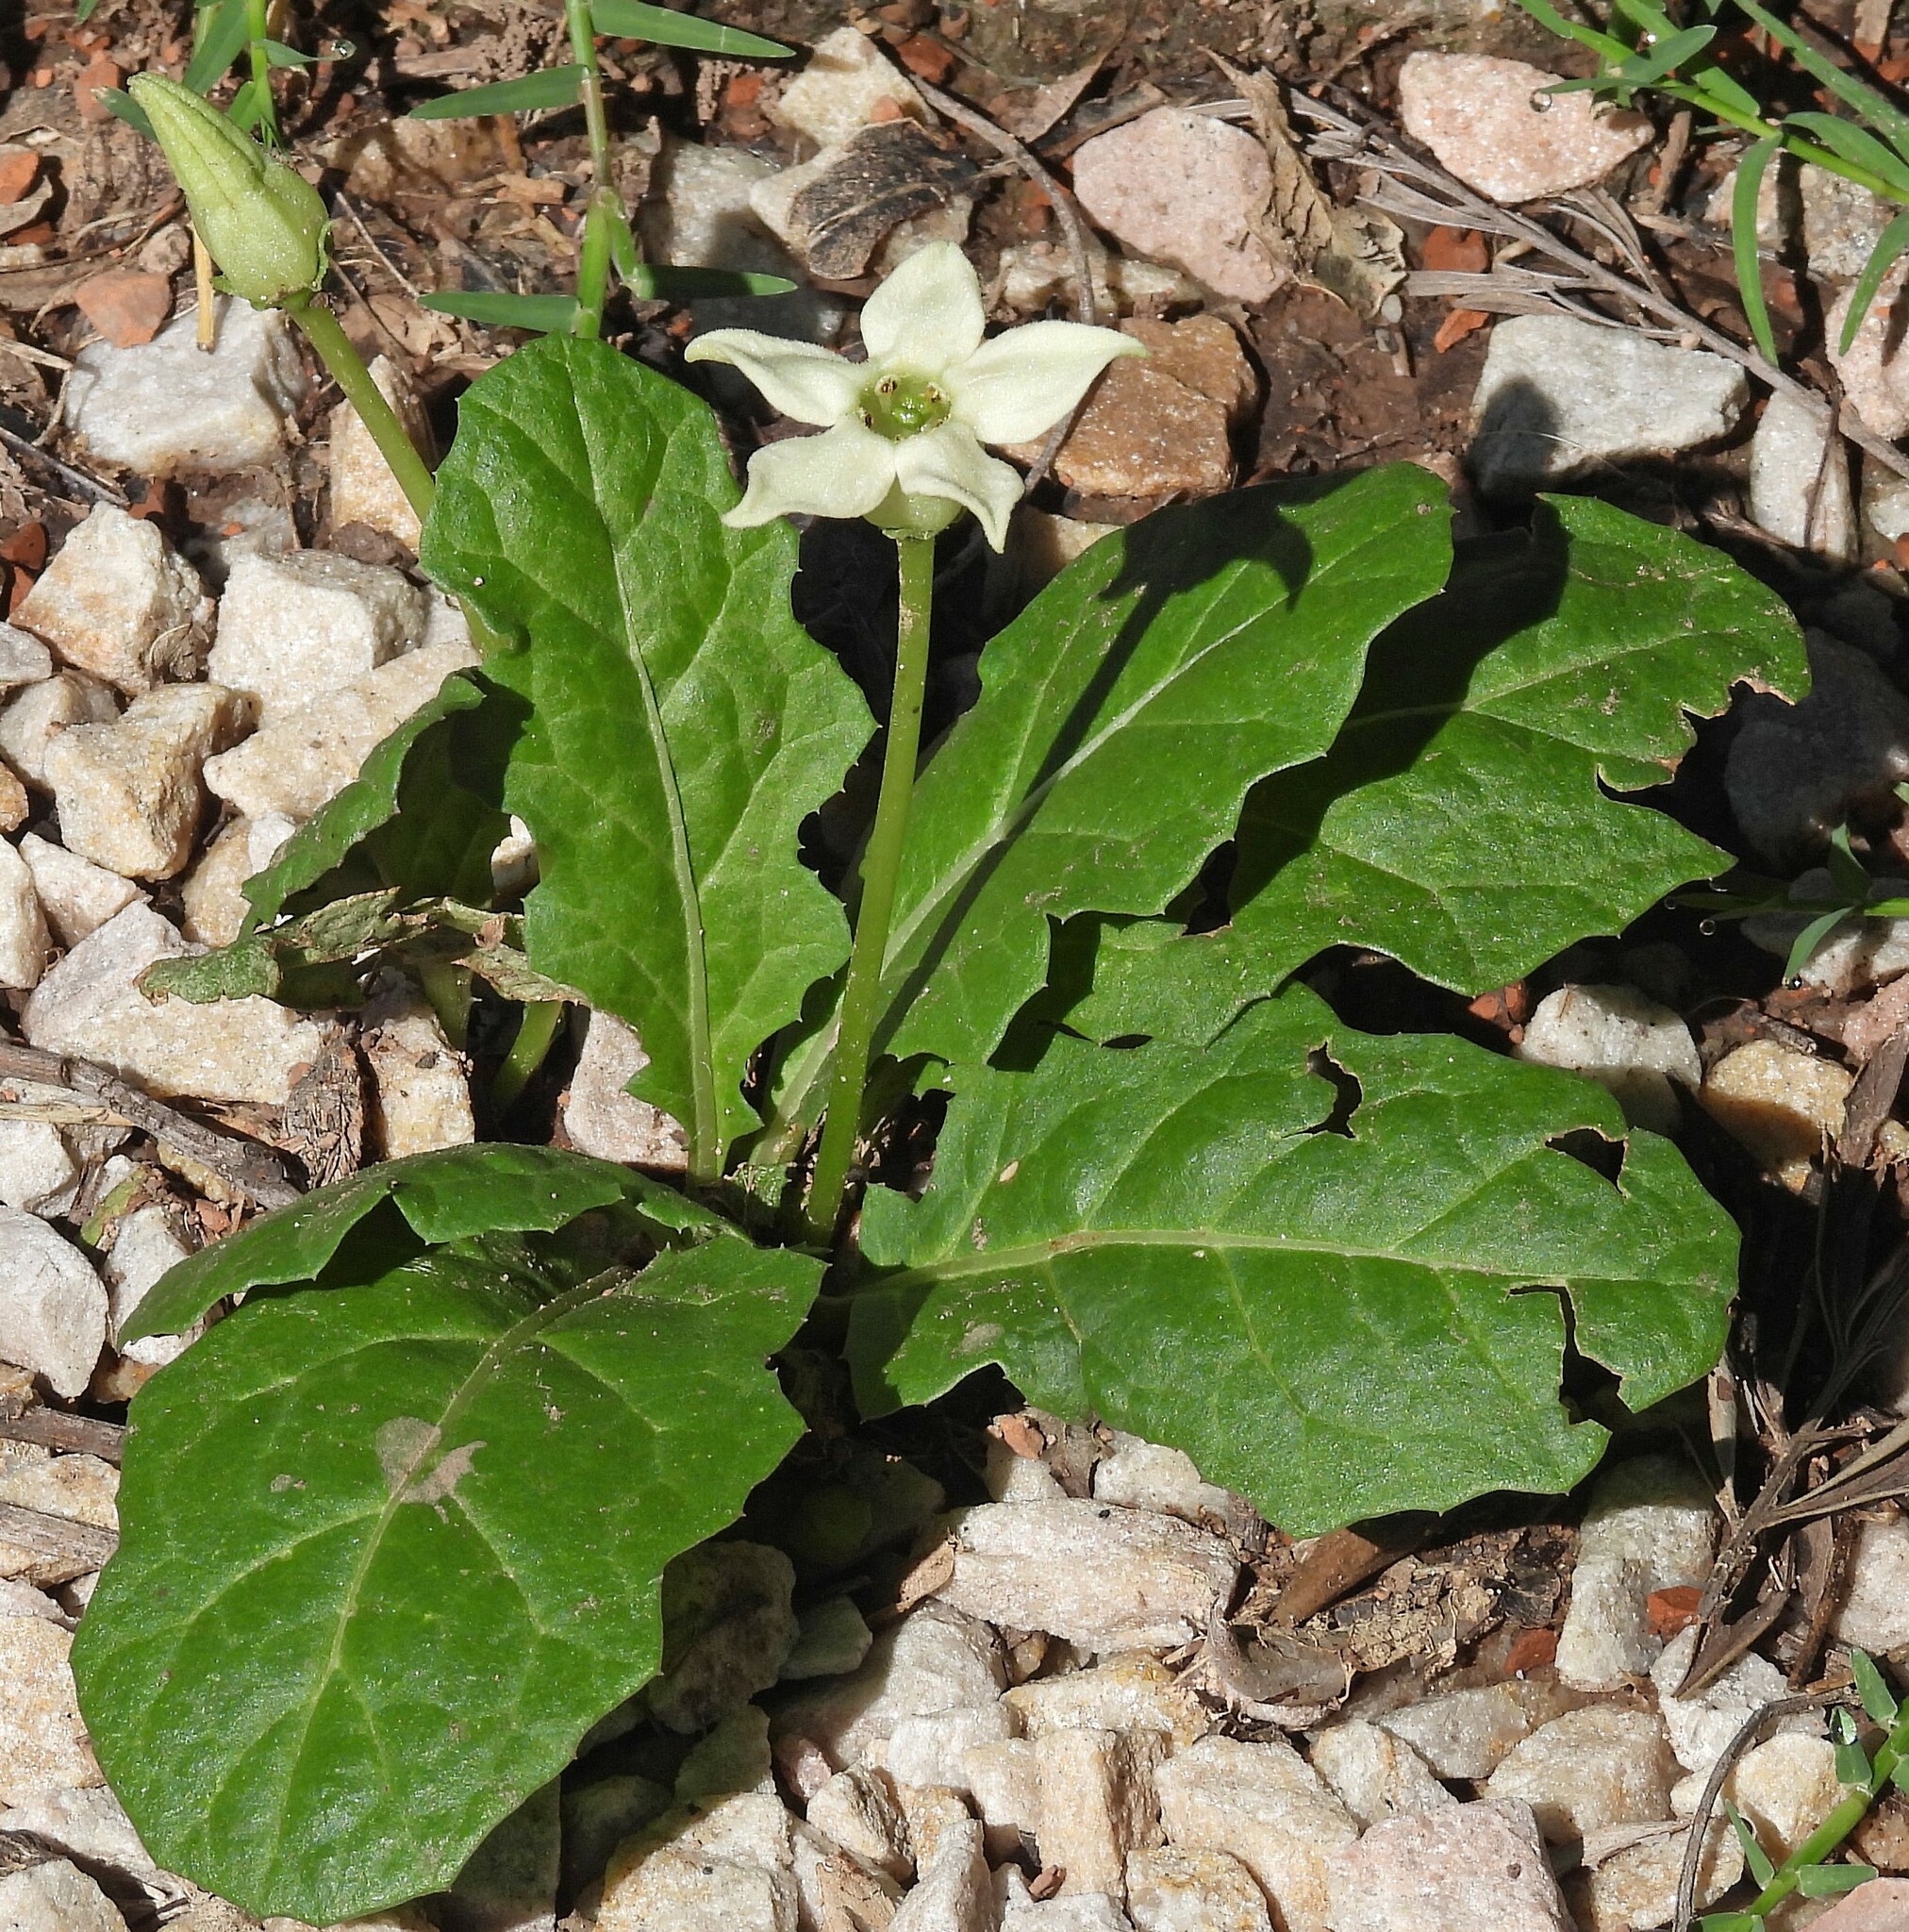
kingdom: Plantae
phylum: Tracheophyta
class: Magnoliopsida
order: Solanales
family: Solanaceae
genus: Jaborosa
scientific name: Jaborosa runcinata
